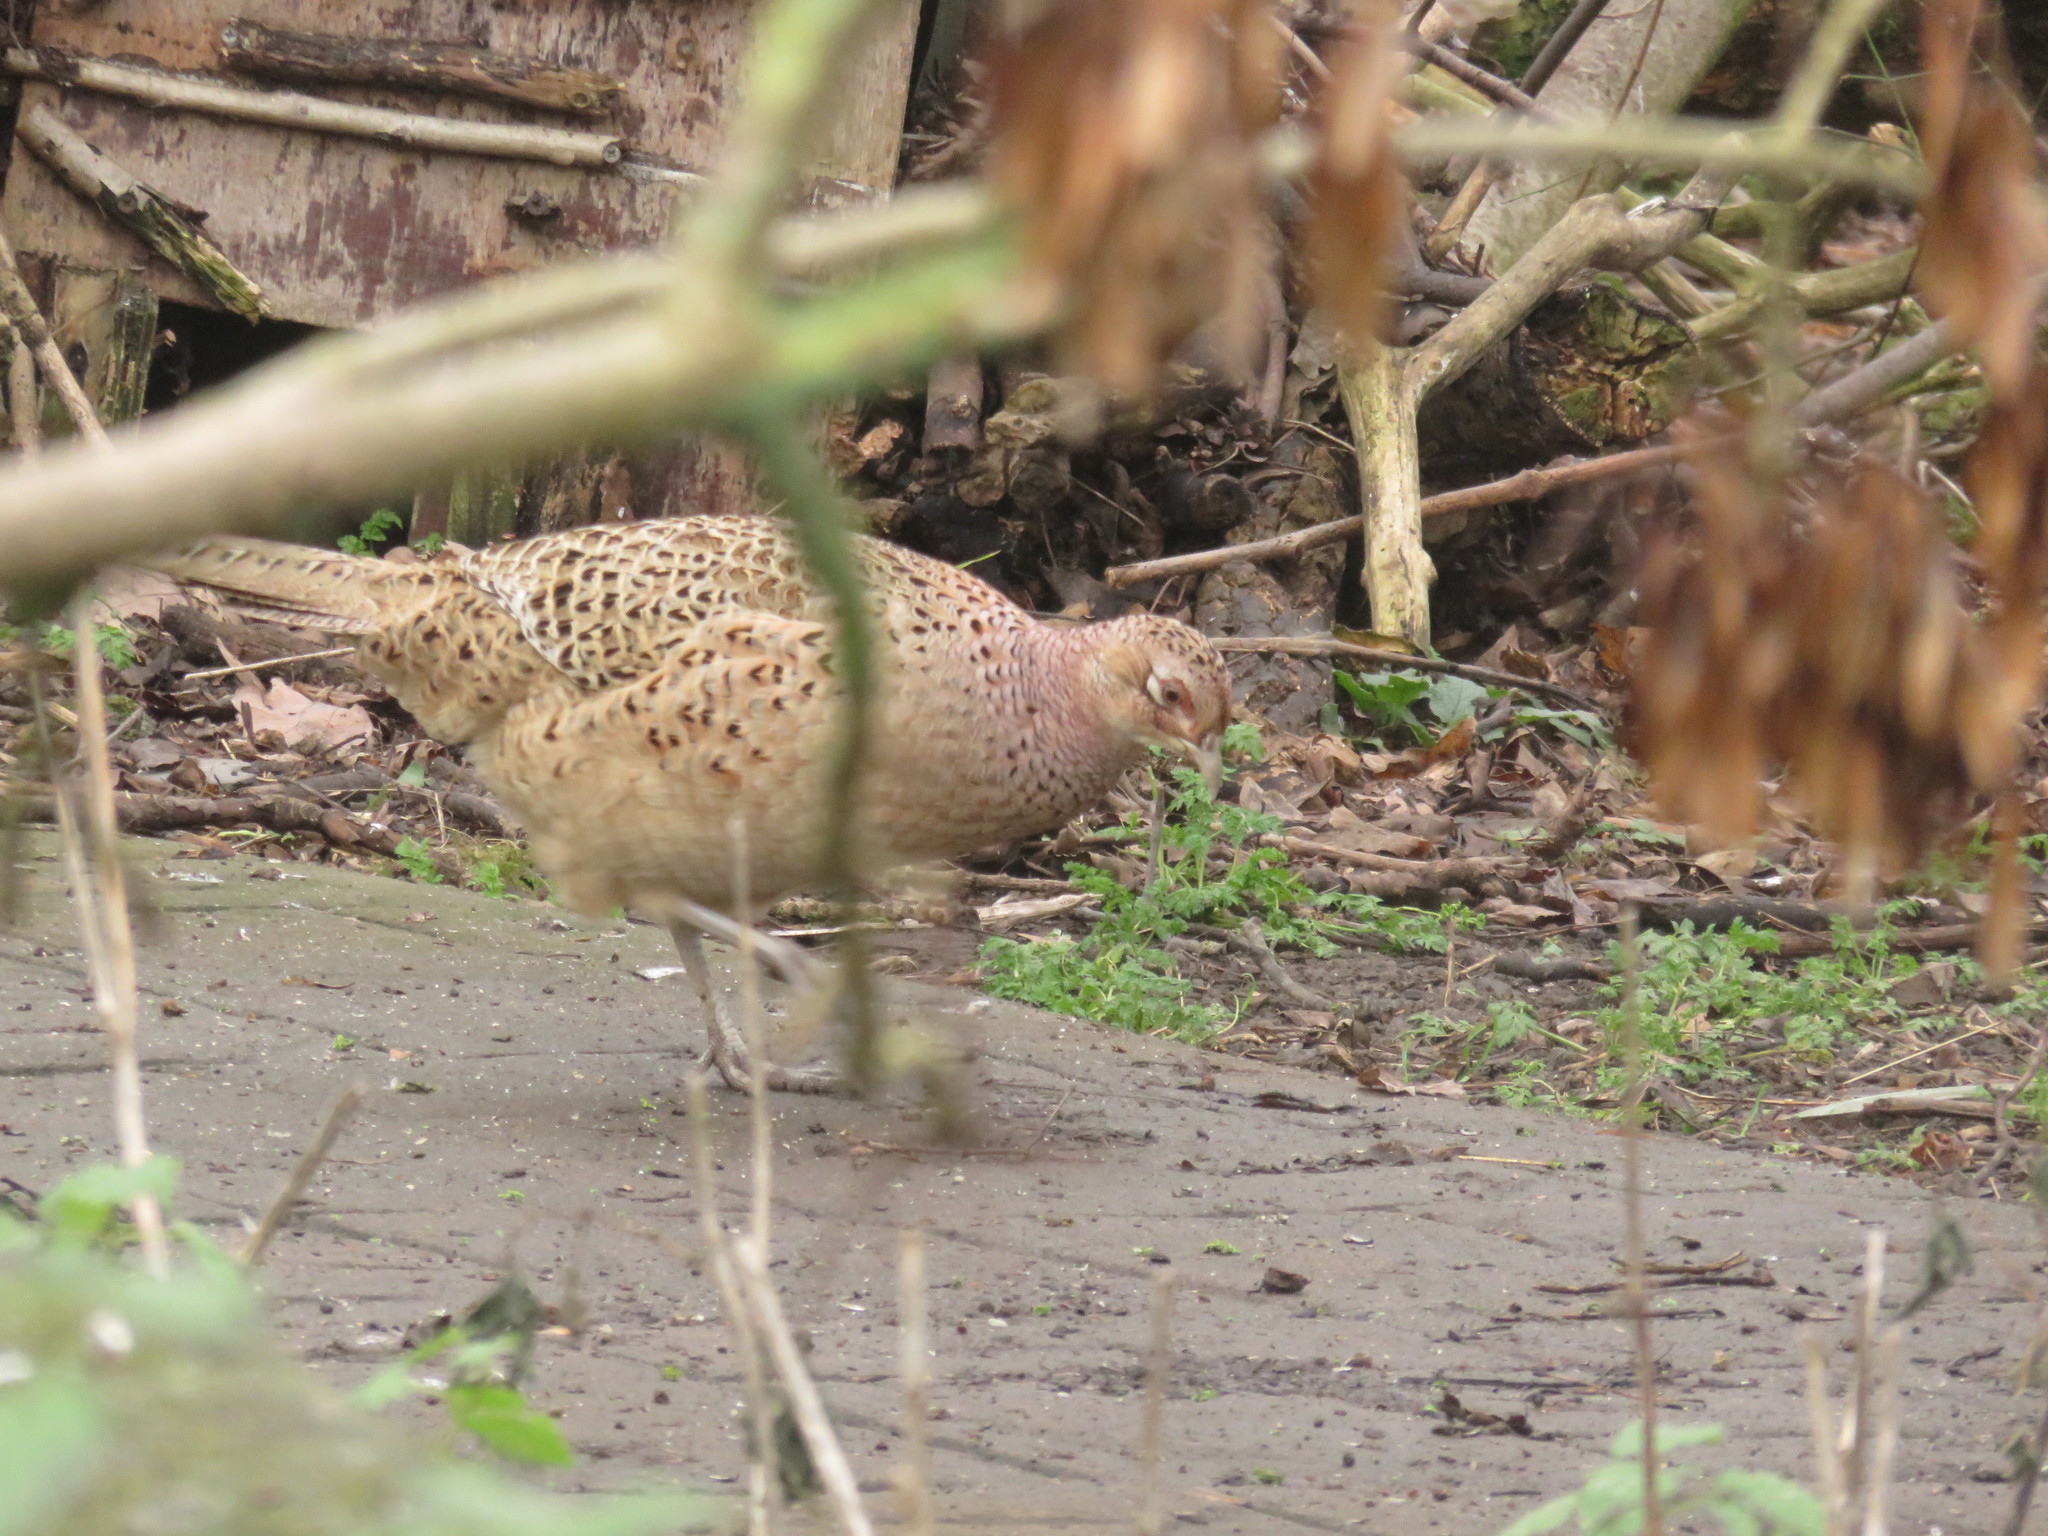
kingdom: Animalia
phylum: Chordata
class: Aves
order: Galliformes
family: Phasianidae
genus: Phasianus
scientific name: Phasianus colchicus
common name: Common pheasant
